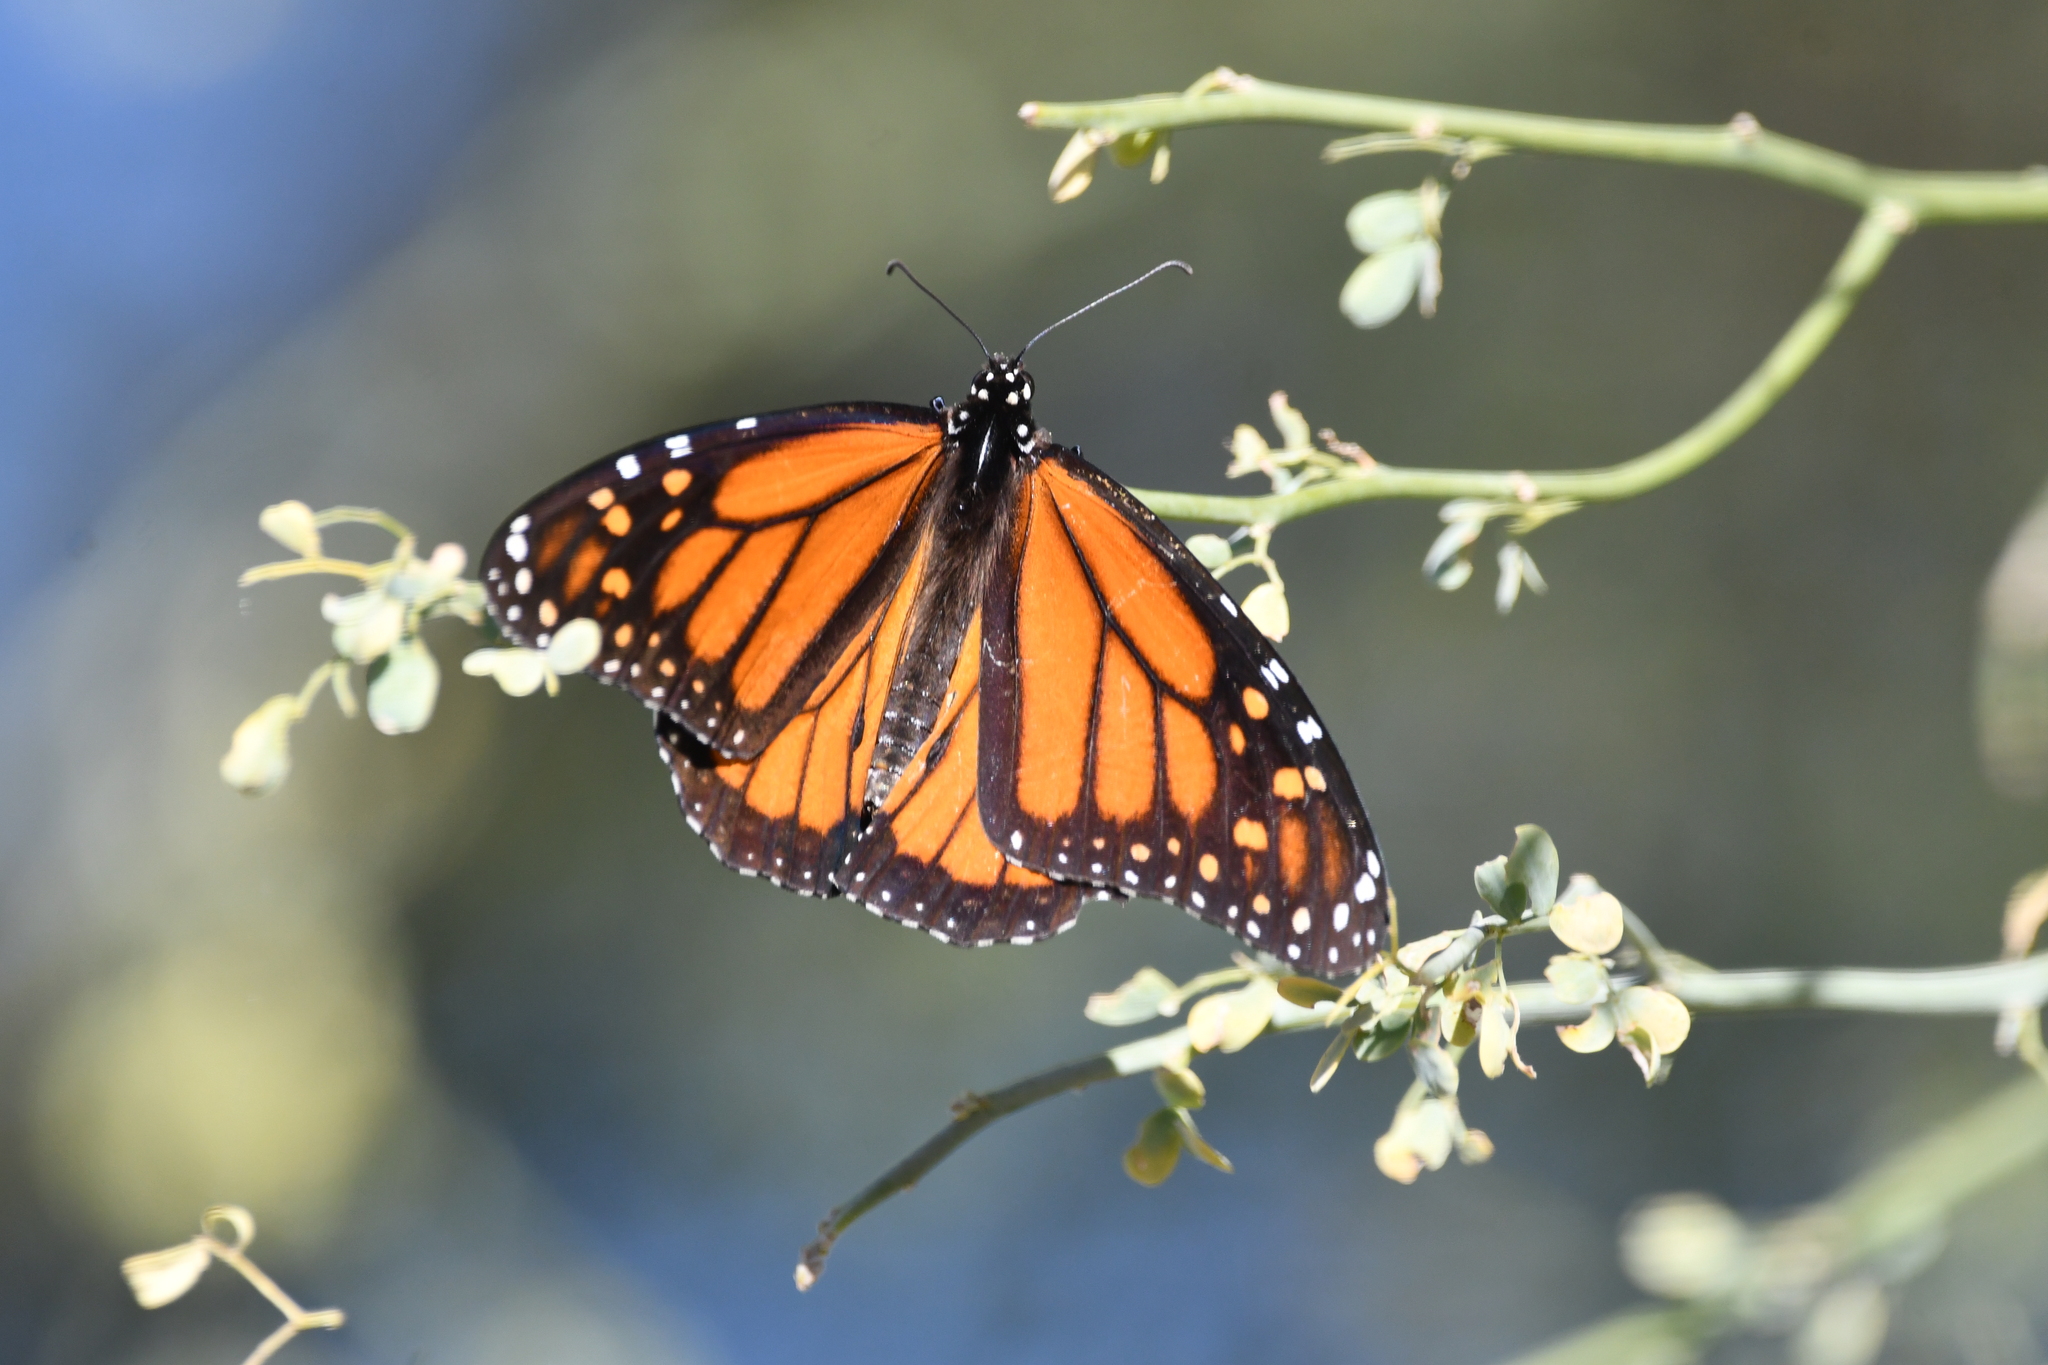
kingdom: Animalia
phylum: Arthropoda
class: Insecta
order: Lepidoptera
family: Nymphalidae
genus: Danaus
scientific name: Danaus plexippus
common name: Monarch
